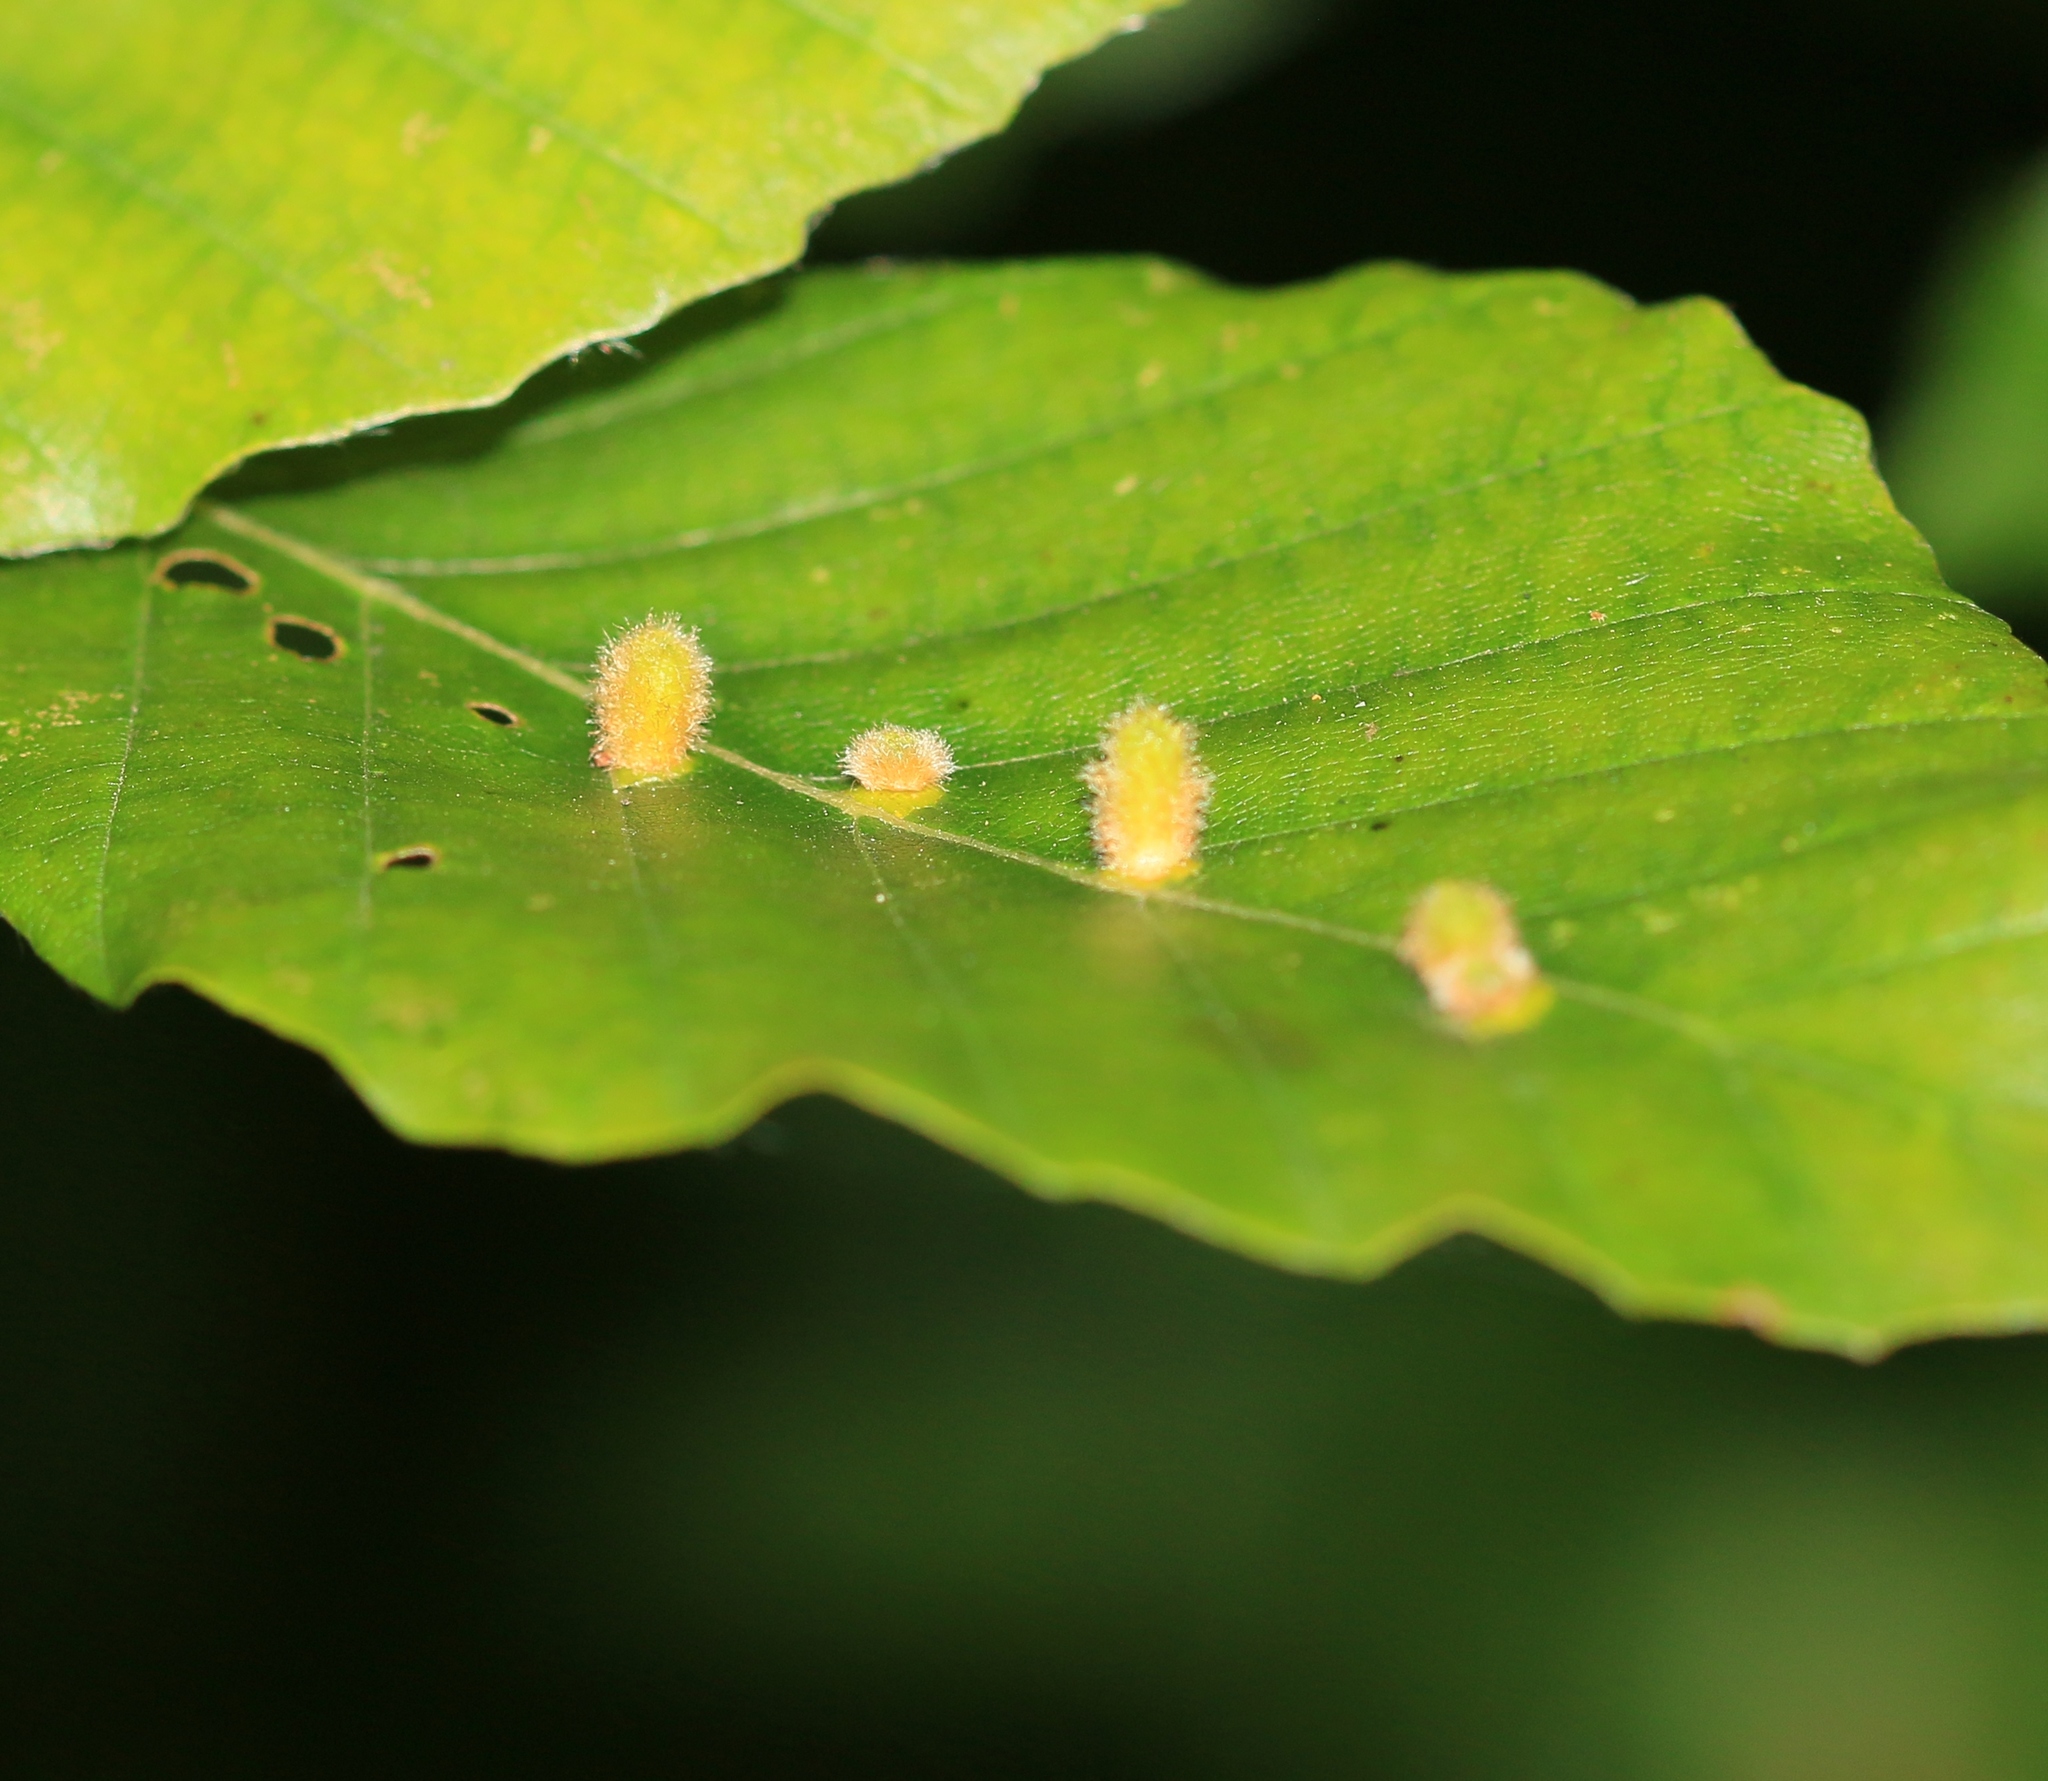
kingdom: Animalia
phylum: Arthropoda
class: Insecta
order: Diptera
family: Cecidomyiidae
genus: Hartigiola
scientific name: Hartigiola annulipes
